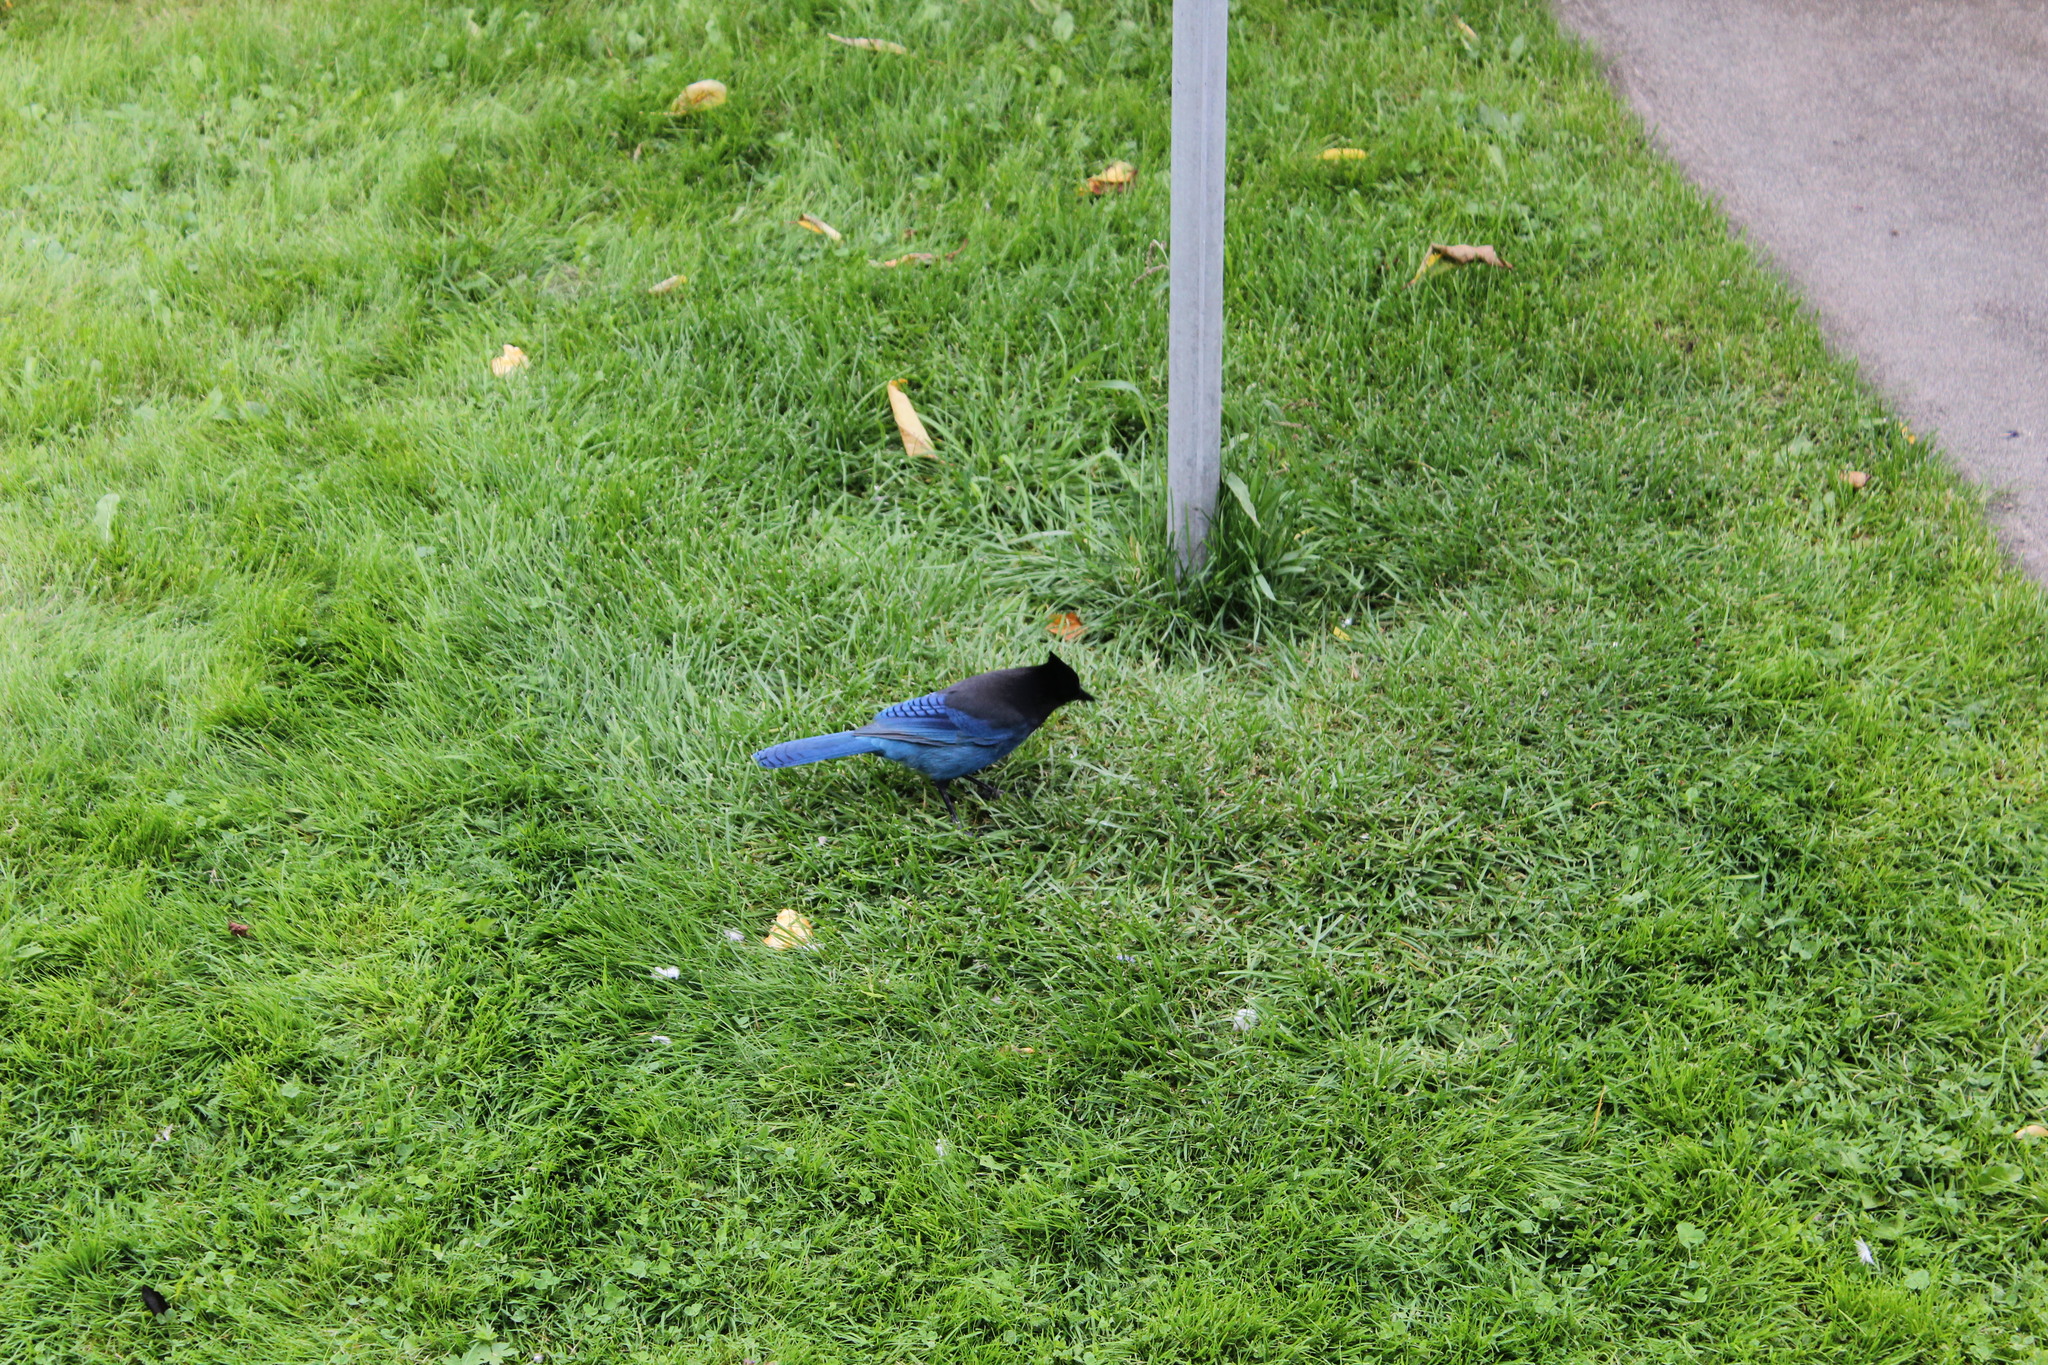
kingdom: Animalia
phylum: Chordata
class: Aves
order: Passeriformes
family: Corvidae
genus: Cyanocitta
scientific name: Cyanocitta stelleri
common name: Steller's jay
